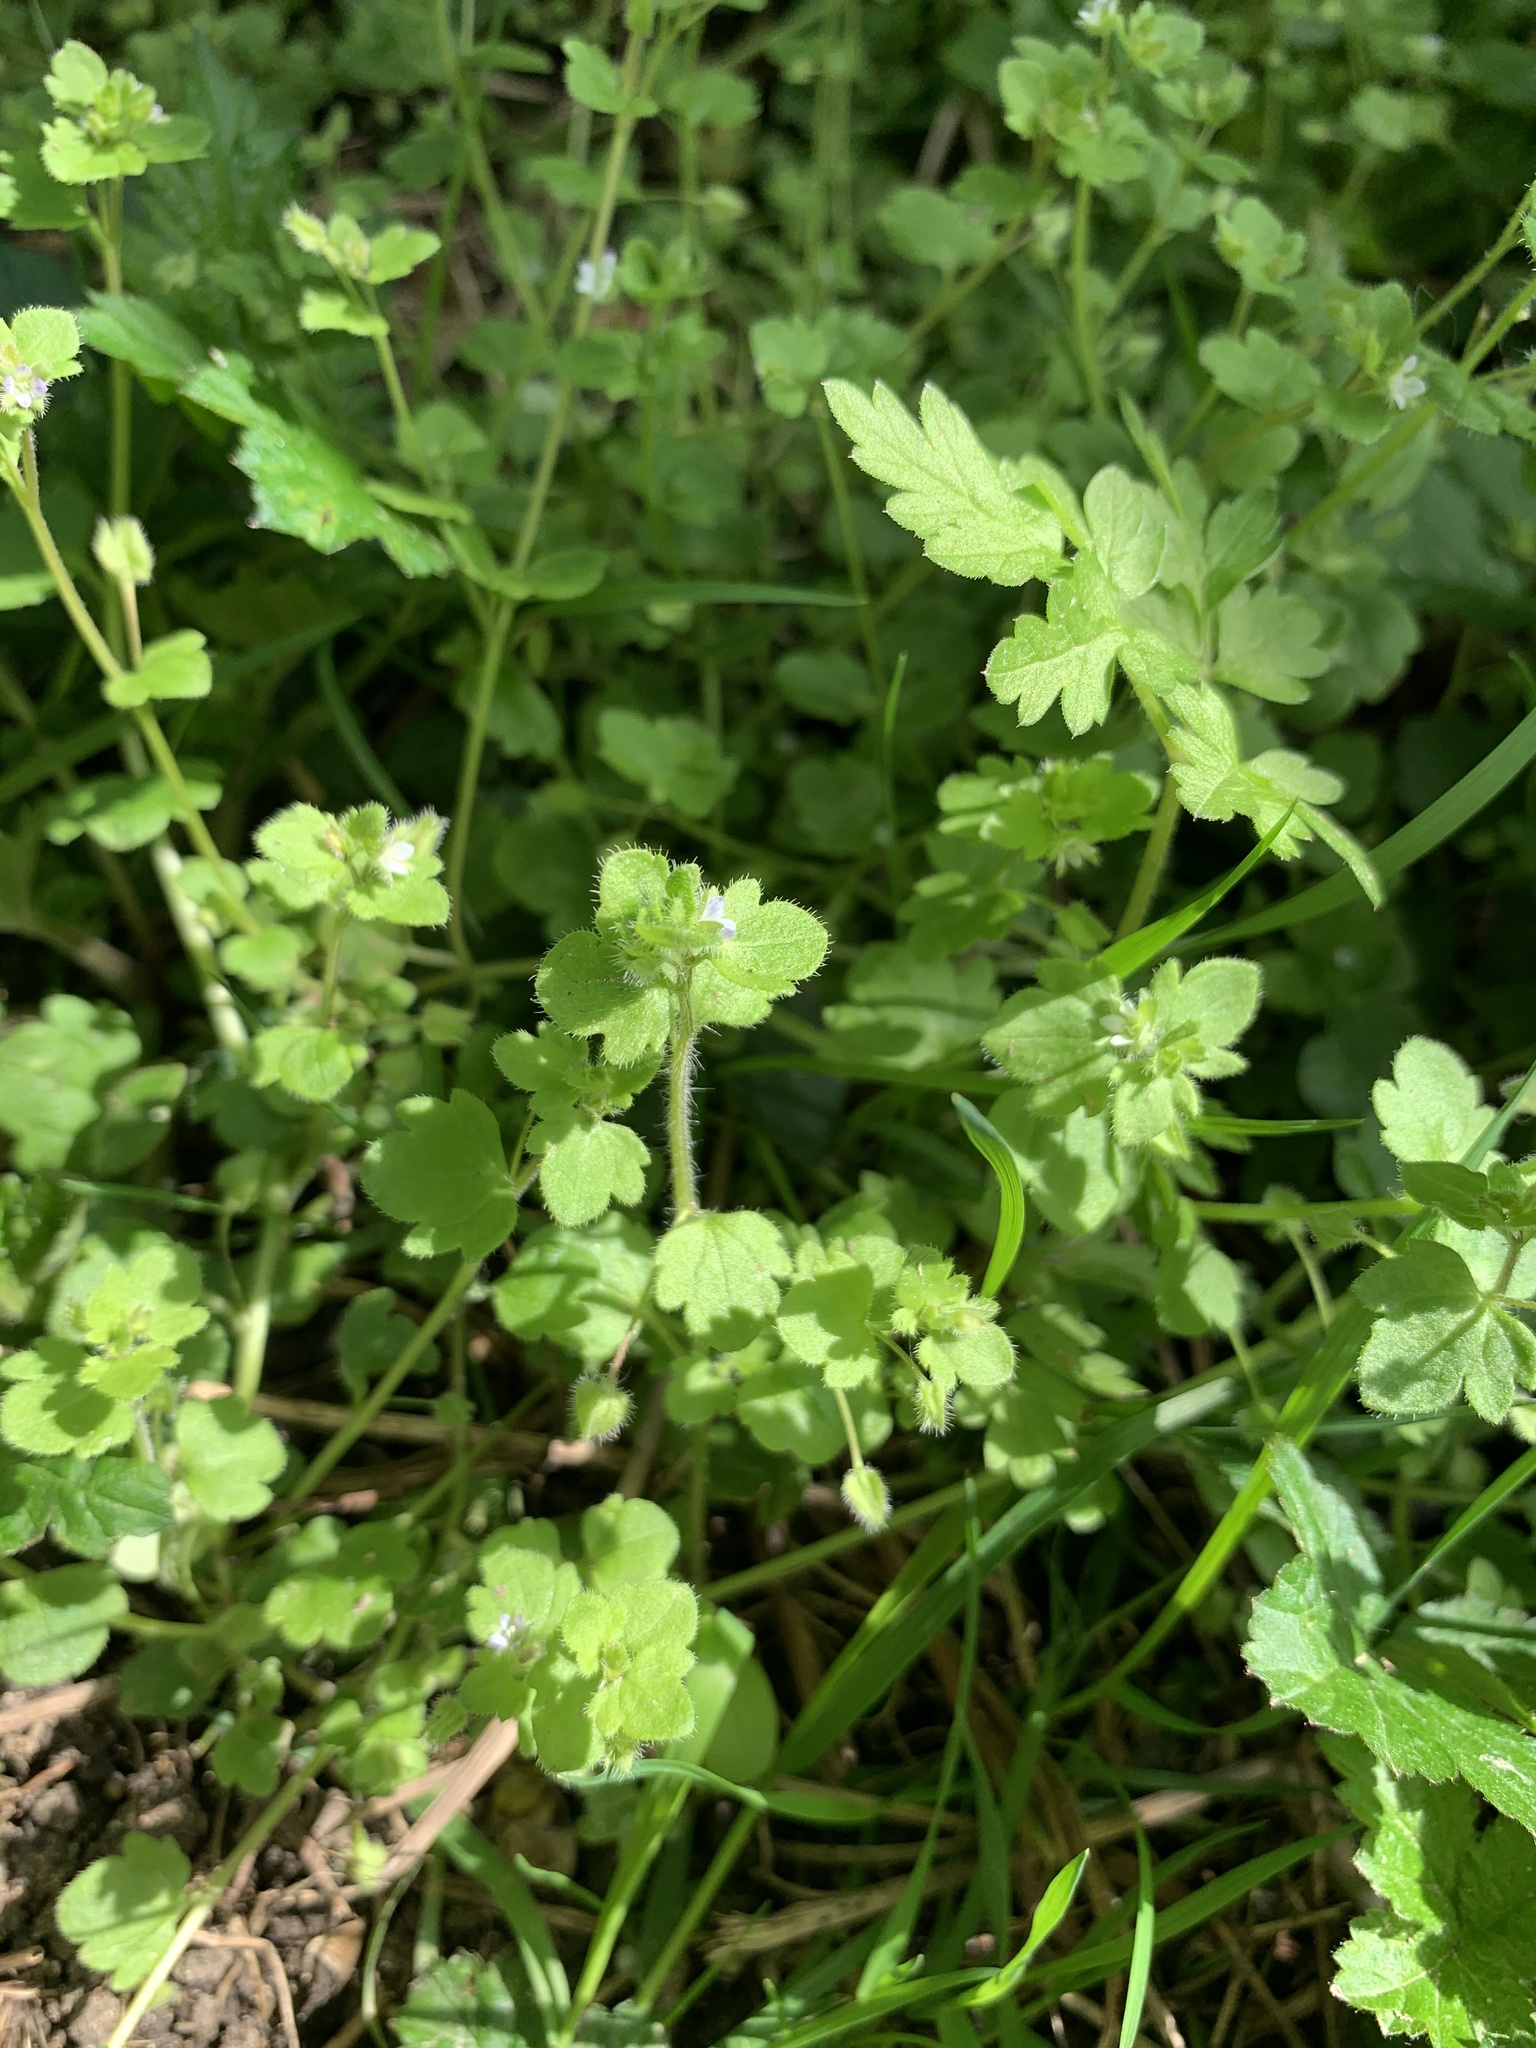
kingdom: Plantae
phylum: Tracheophyta
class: Magnoliopsida
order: Lamiales
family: Plantaginaceae
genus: Veronica
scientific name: Veronica hederifolia
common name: Ivy-leaved speedwell
